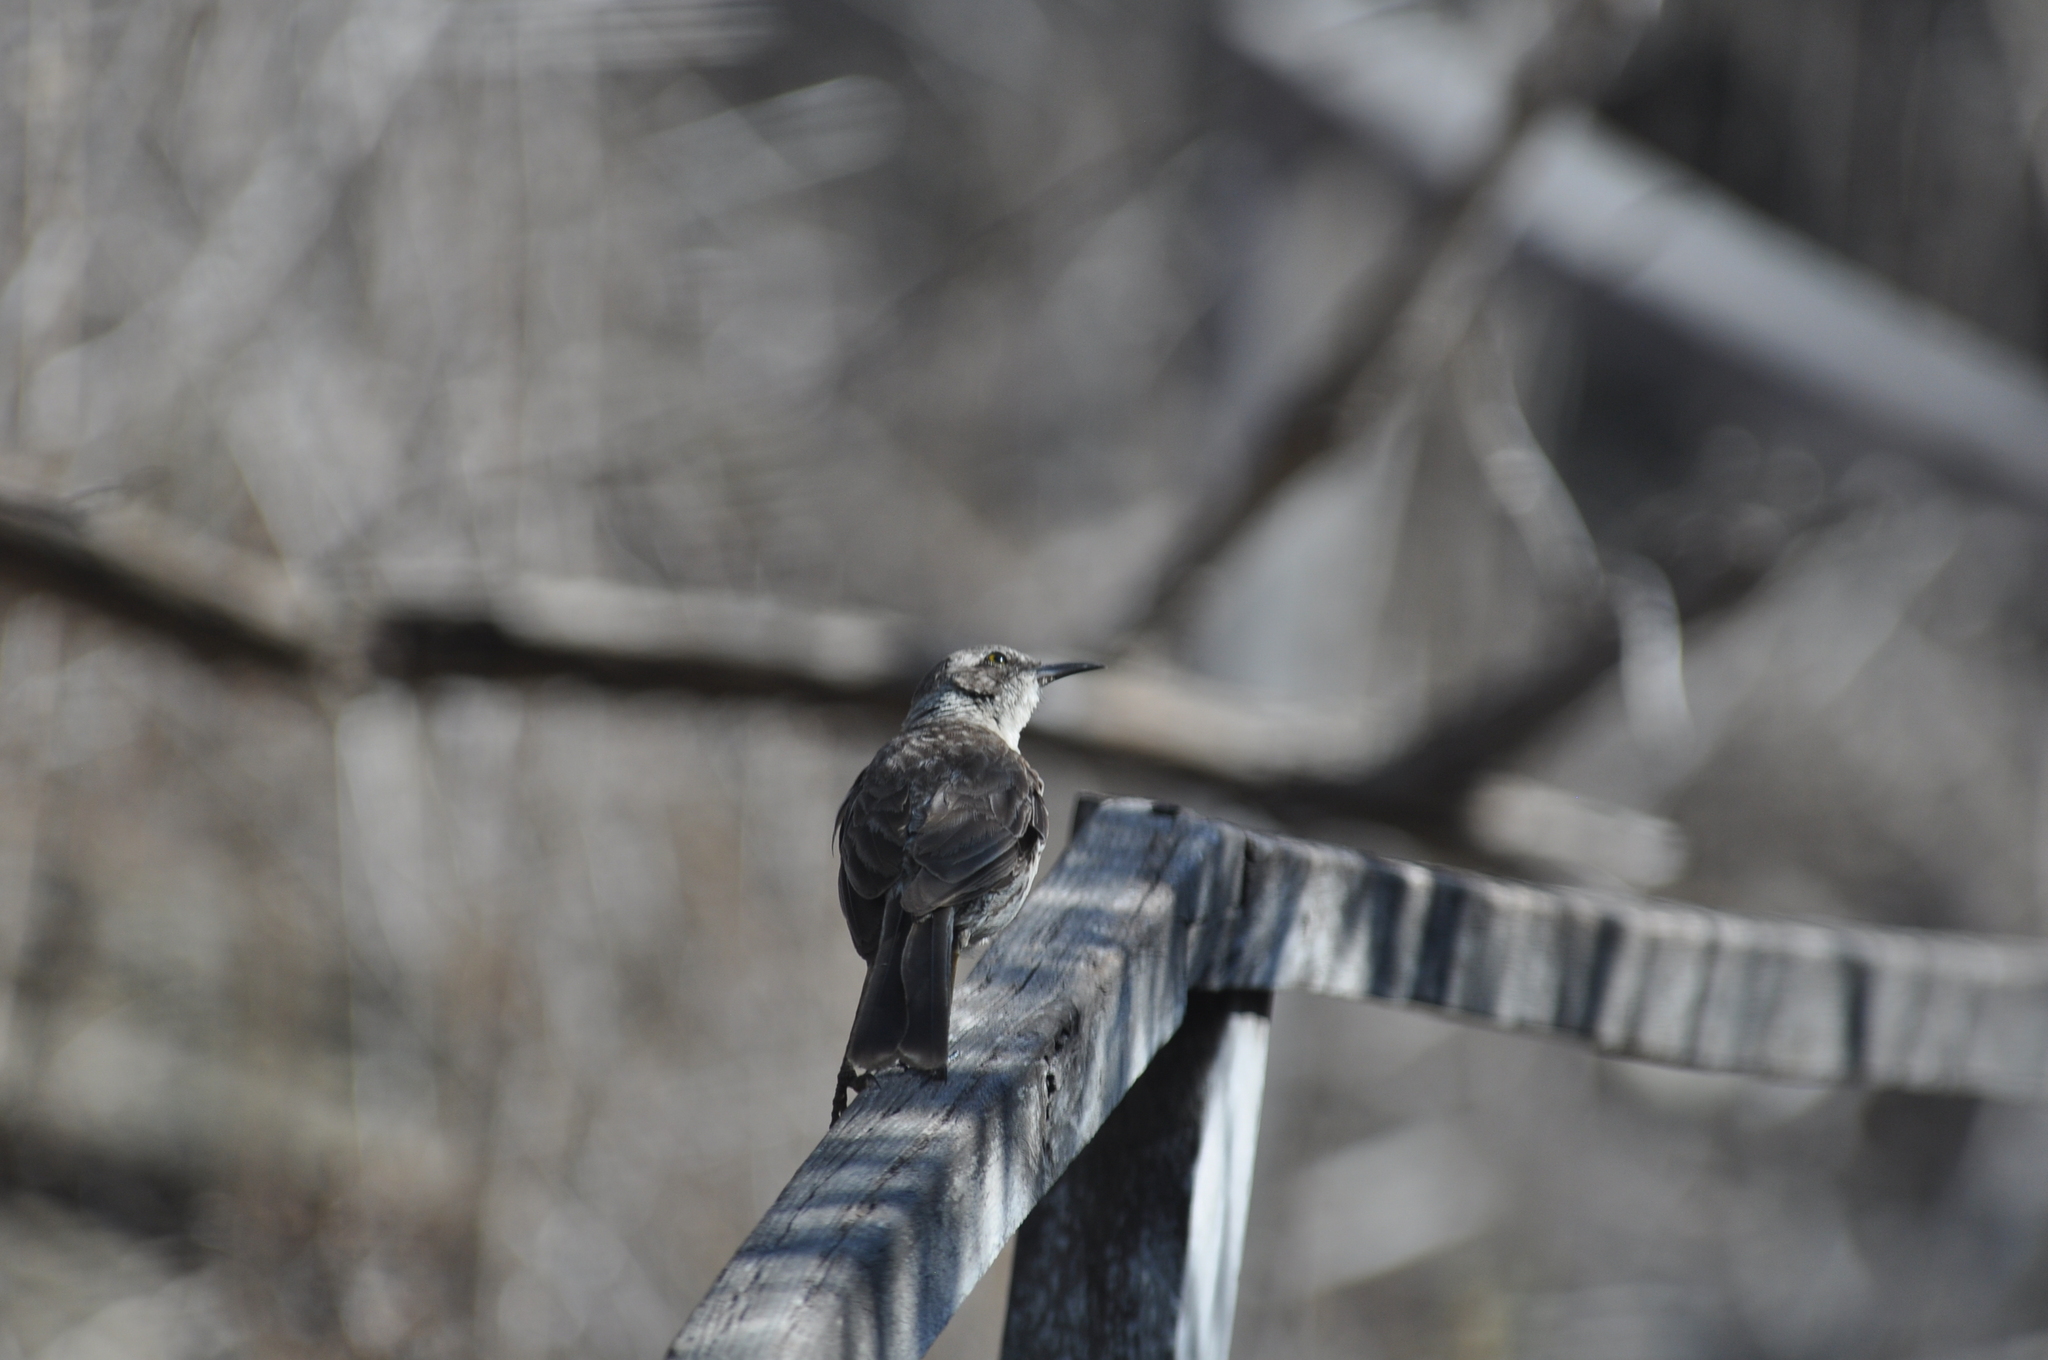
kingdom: Animalia
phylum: Chordata
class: Aves
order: Passeriformes
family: Mimidae
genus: Mimus
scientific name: Mimus parvulus
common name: Galapagos mockingbird
